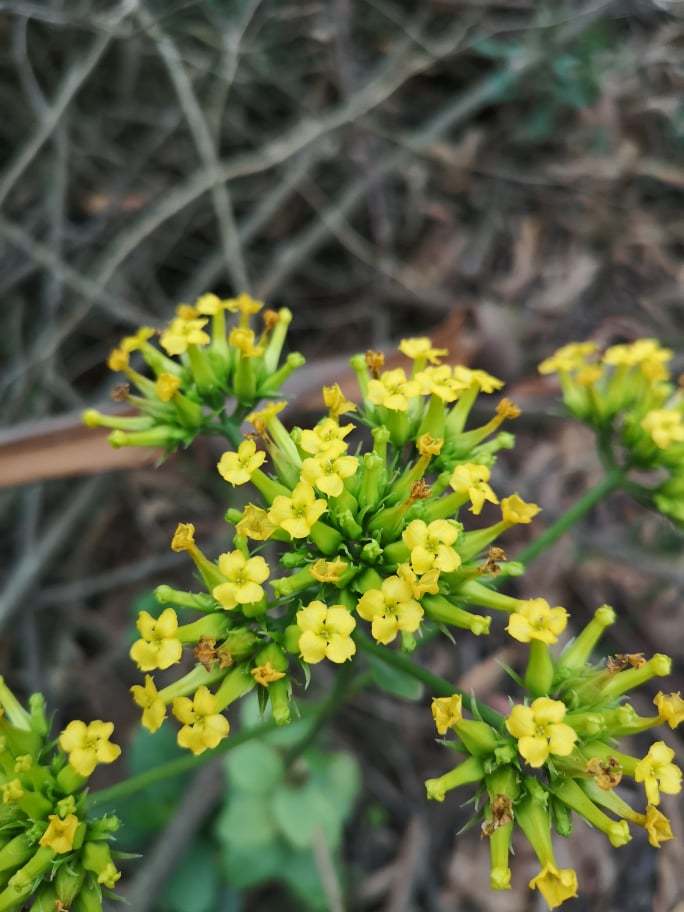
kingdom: Plantae
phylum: Tracheophyta
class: Magnoliopsida
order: Saxifragales
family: Crassulaceae
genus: Kalanchoe
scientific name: Kalanchoe densiflora
